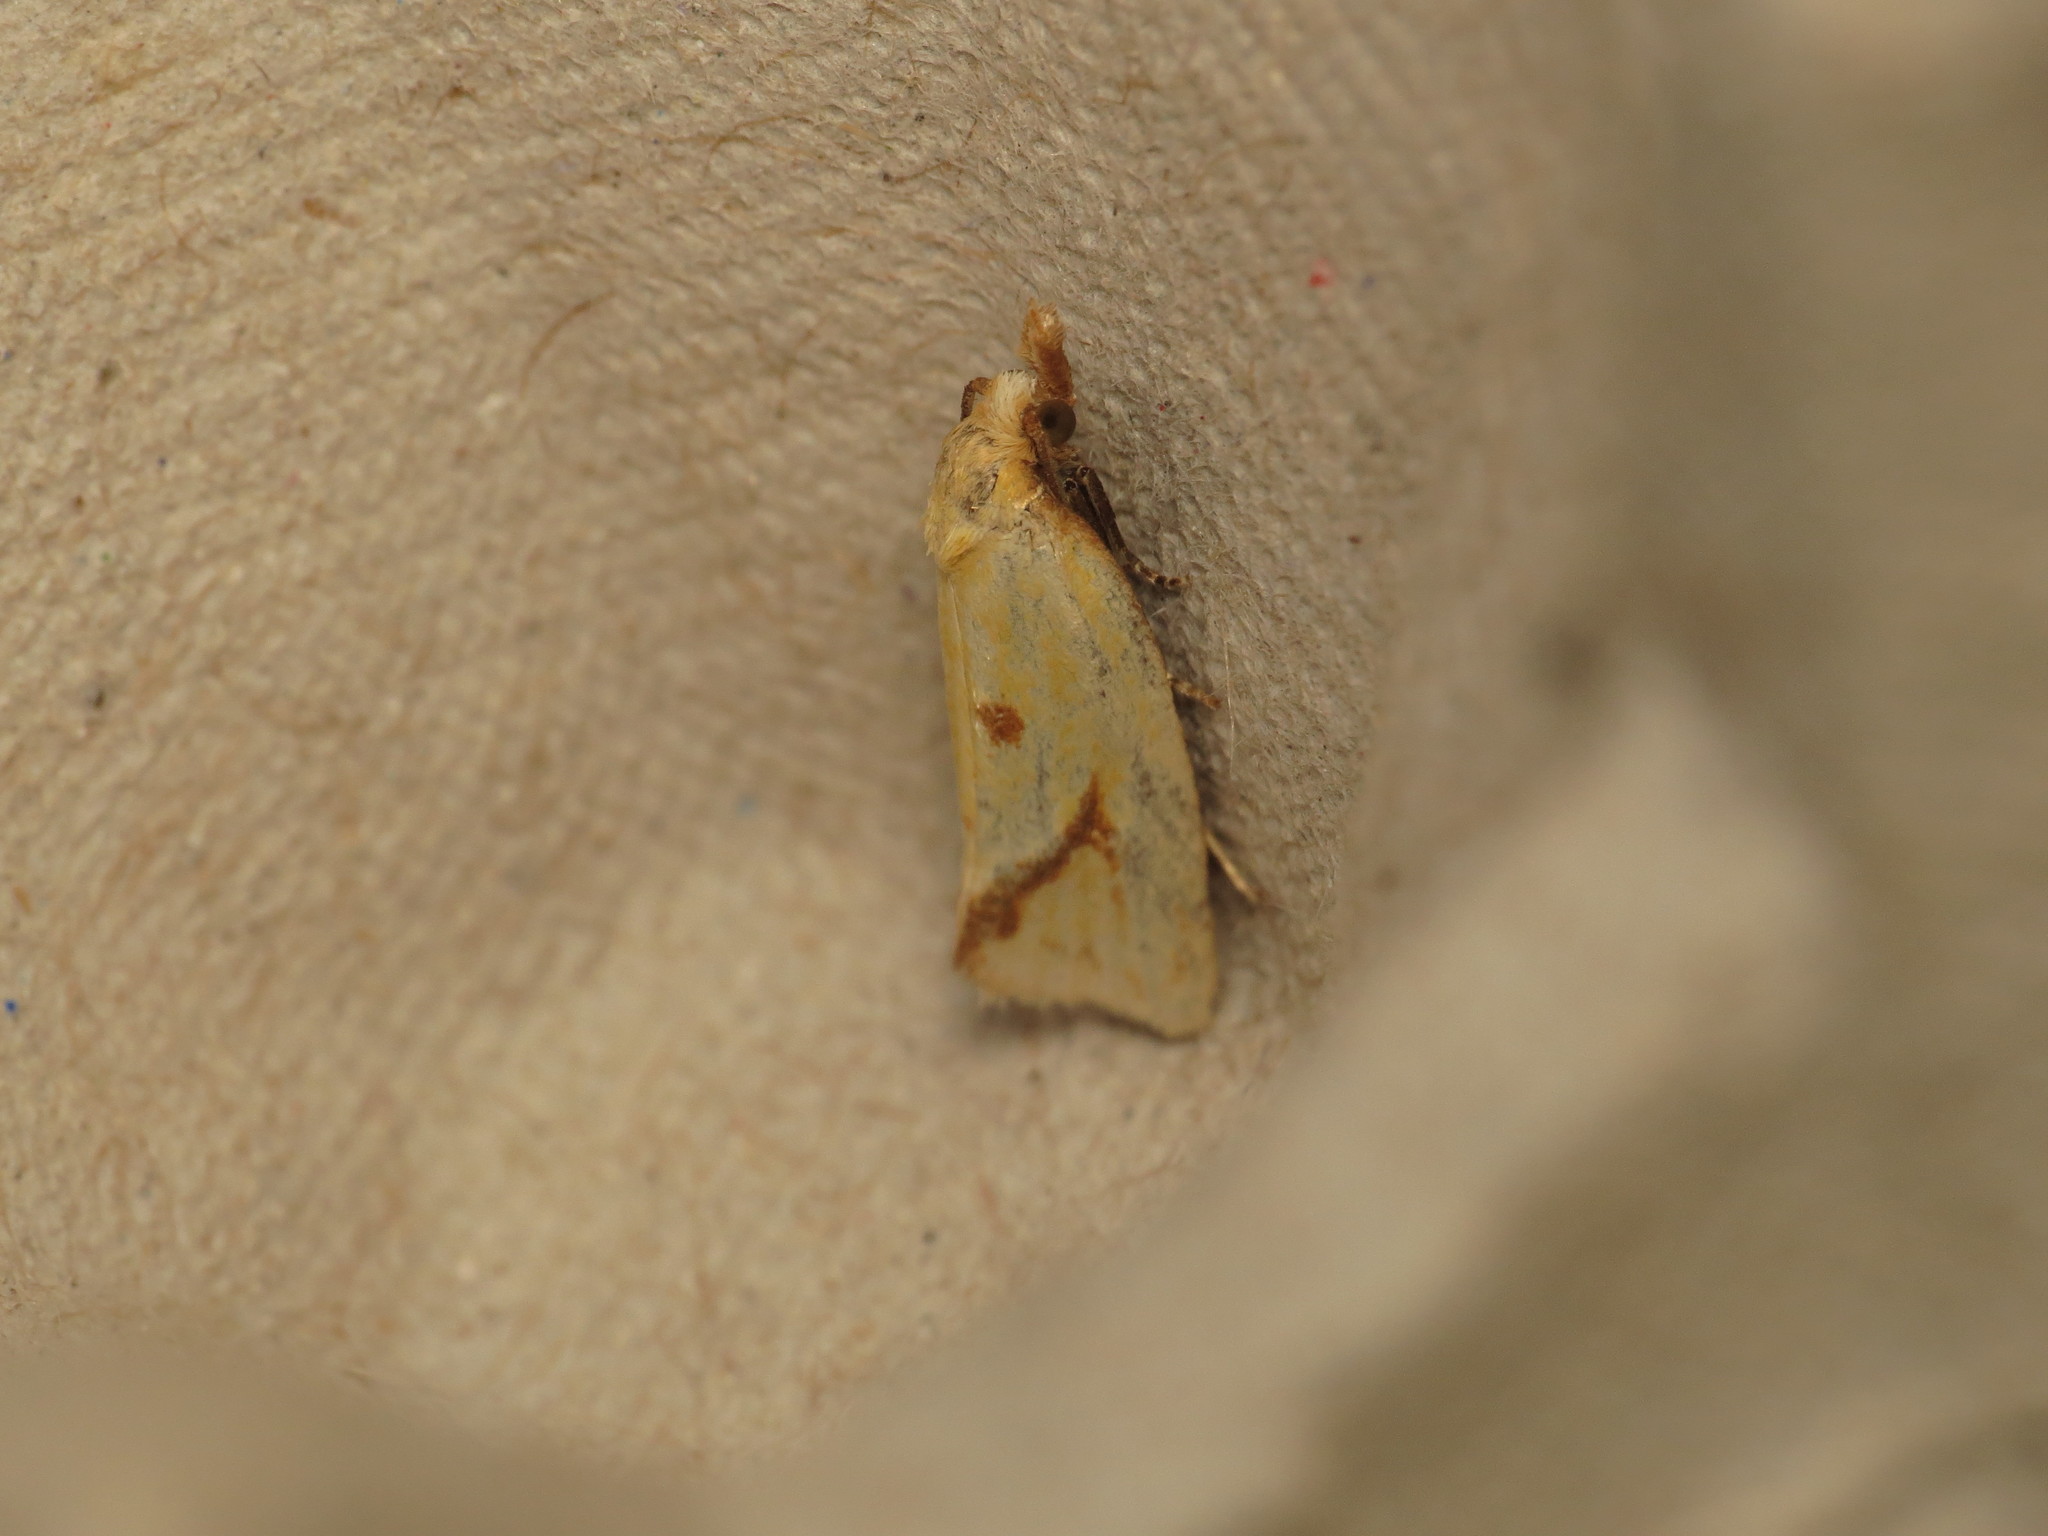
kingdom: Animalia
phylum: Arthropoda
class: Insecta
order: Lepidoptera
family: Tortricidae
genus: Agapeta
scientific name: Agapeta hamana
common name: Common yellow conch
